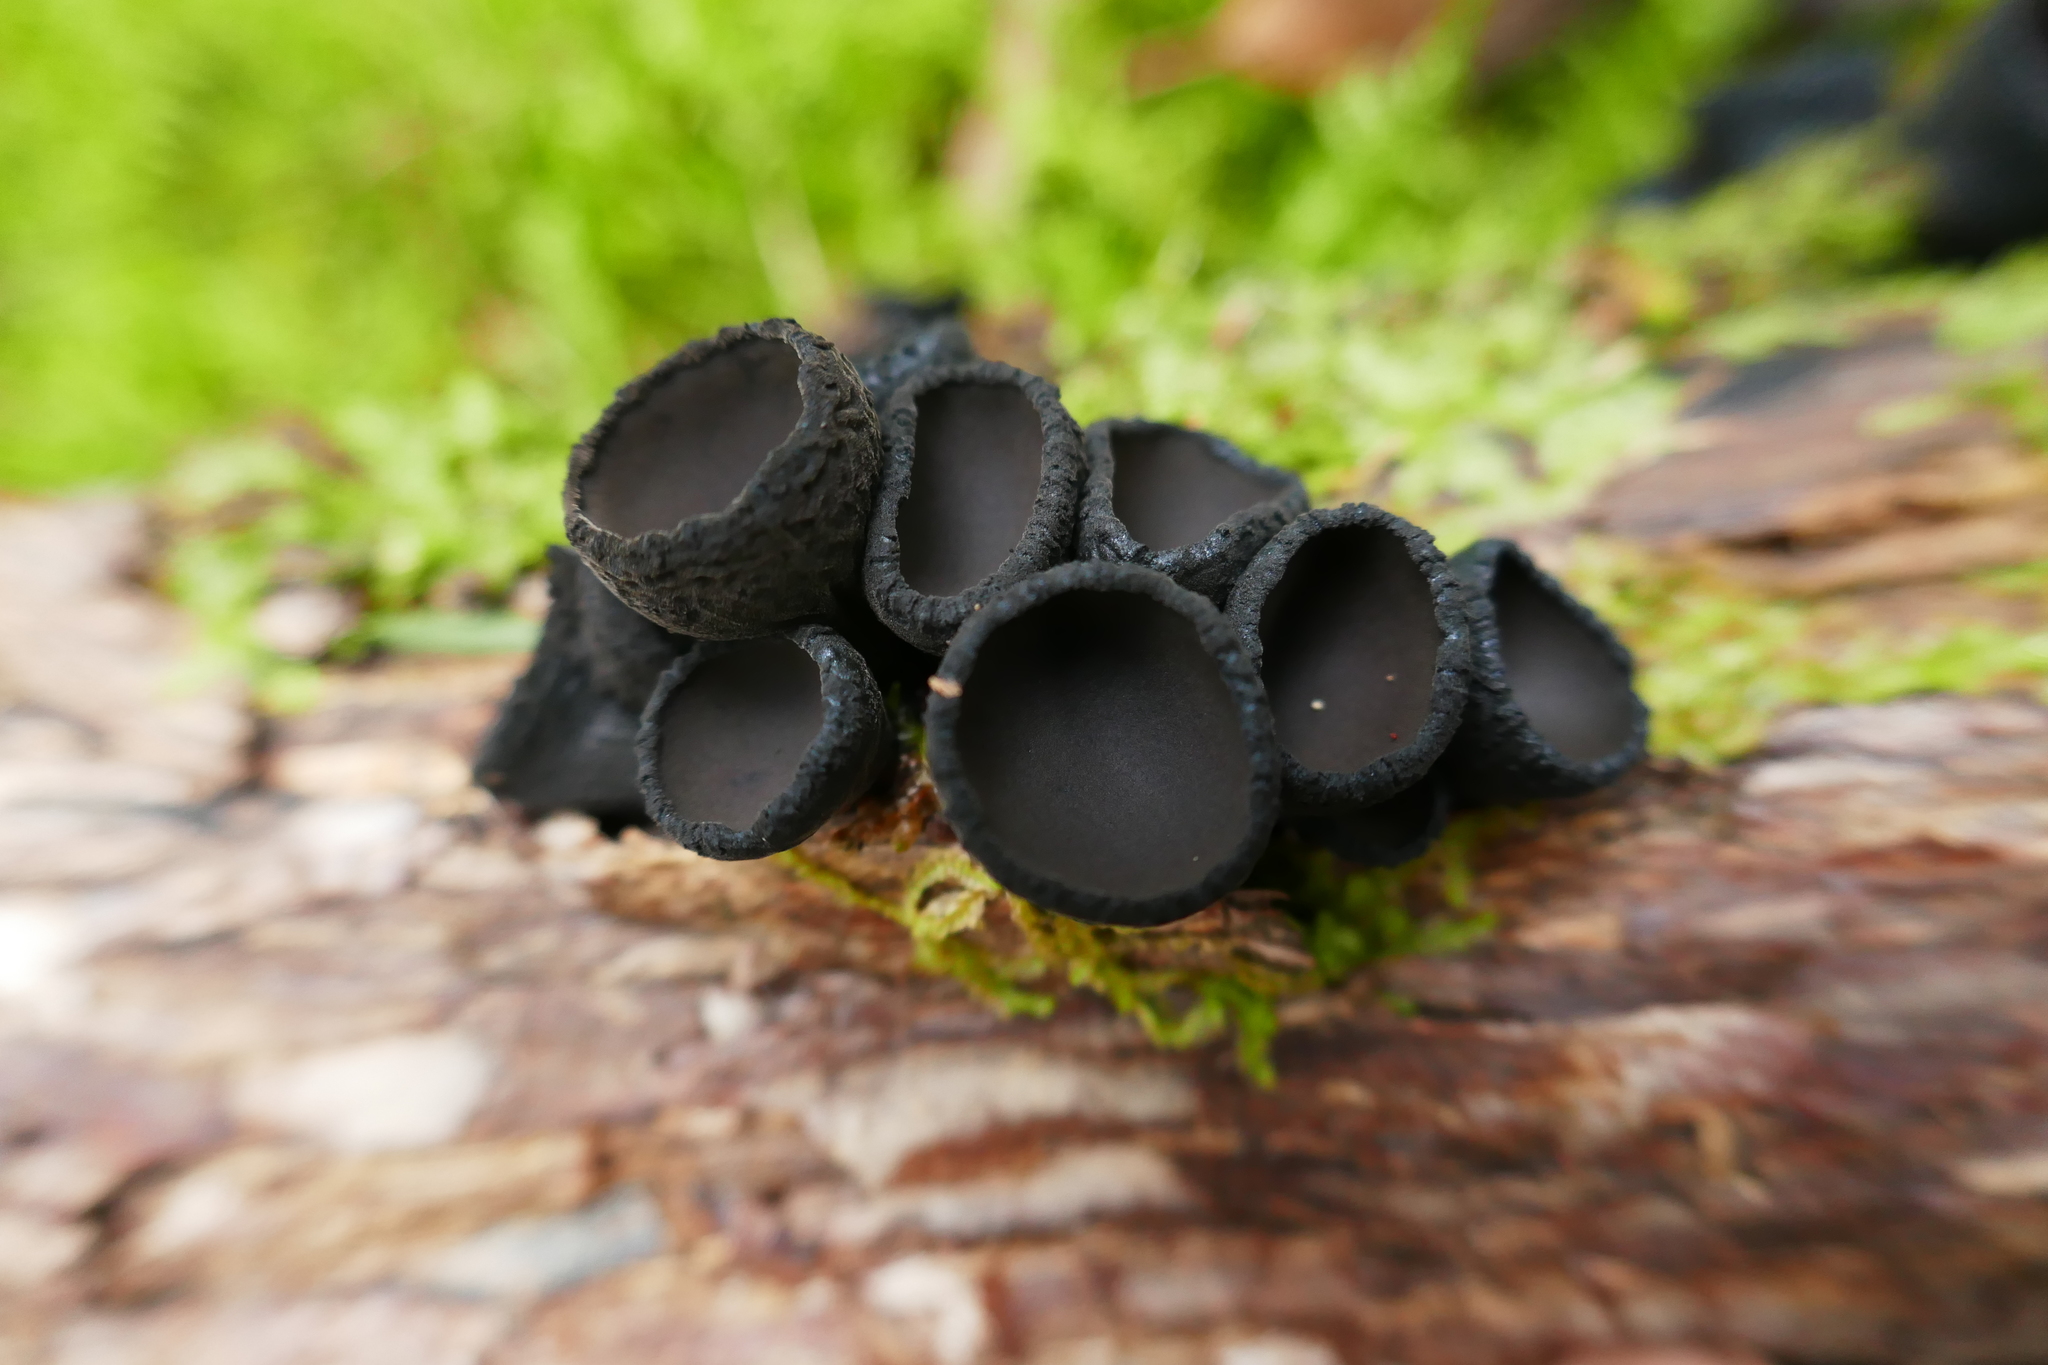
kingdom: Fungi
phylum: Ascomycota
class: Pezizomycetes
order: Pezizales
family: Sarcosomataceae
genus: Plectania
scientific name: Plectania campylospora
